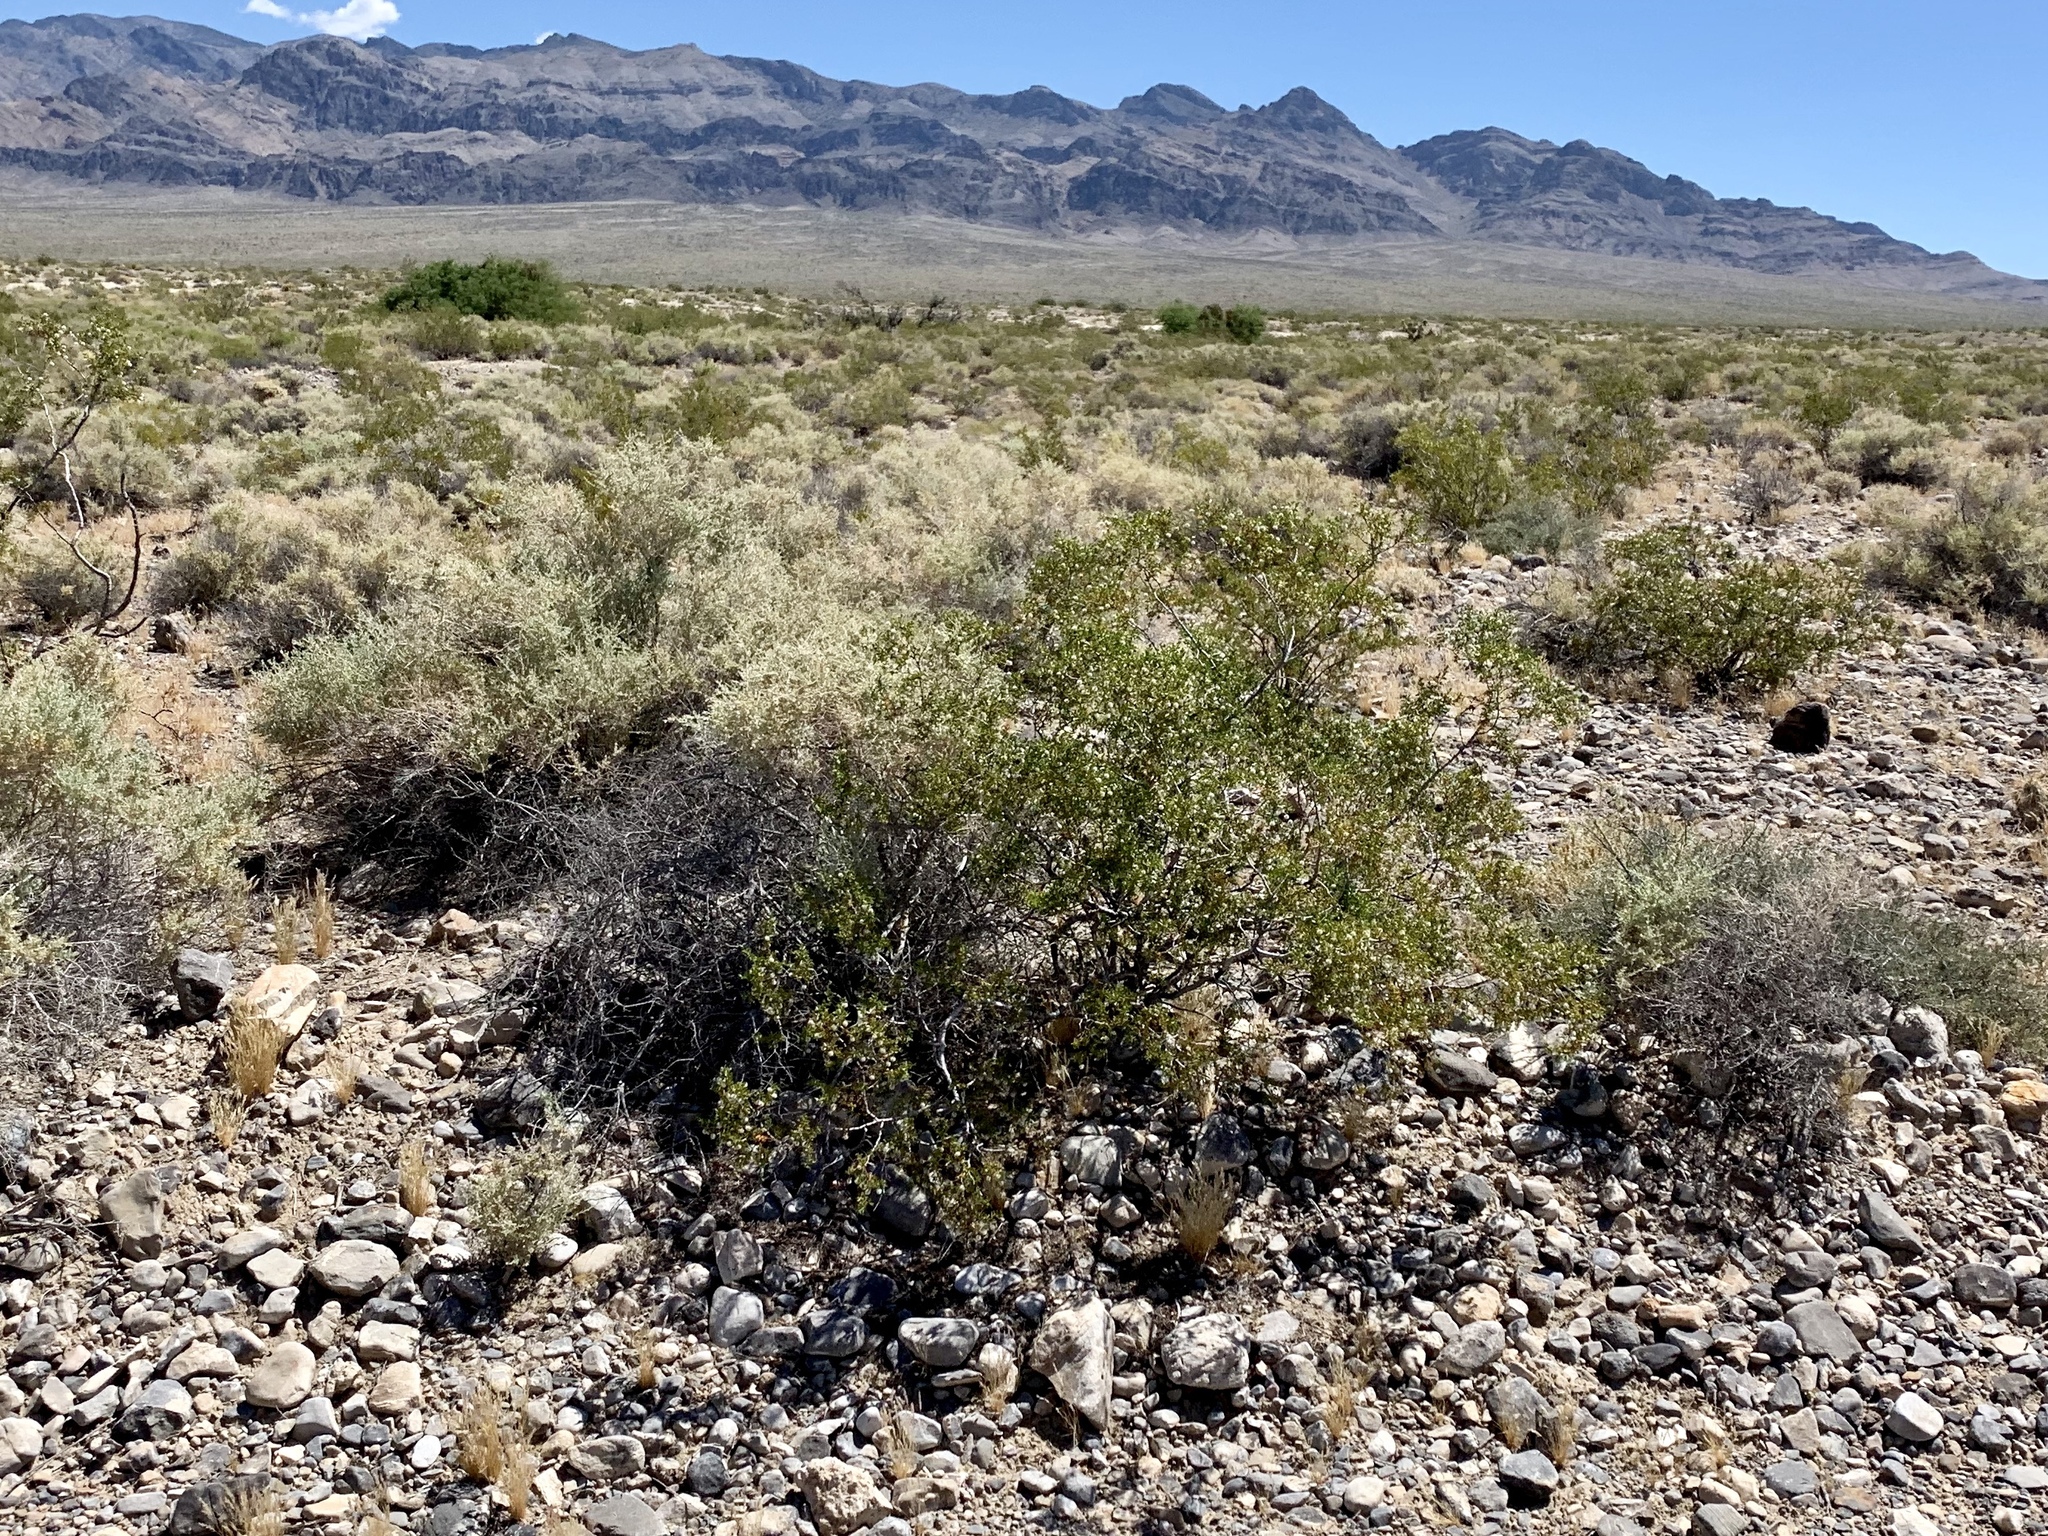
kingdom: Plantae
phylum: Tracheophyta
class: Magnoliopsida
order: Zygophyllales
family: Zygophyllaceae
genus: Larrea
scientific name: Larrea tridentata
